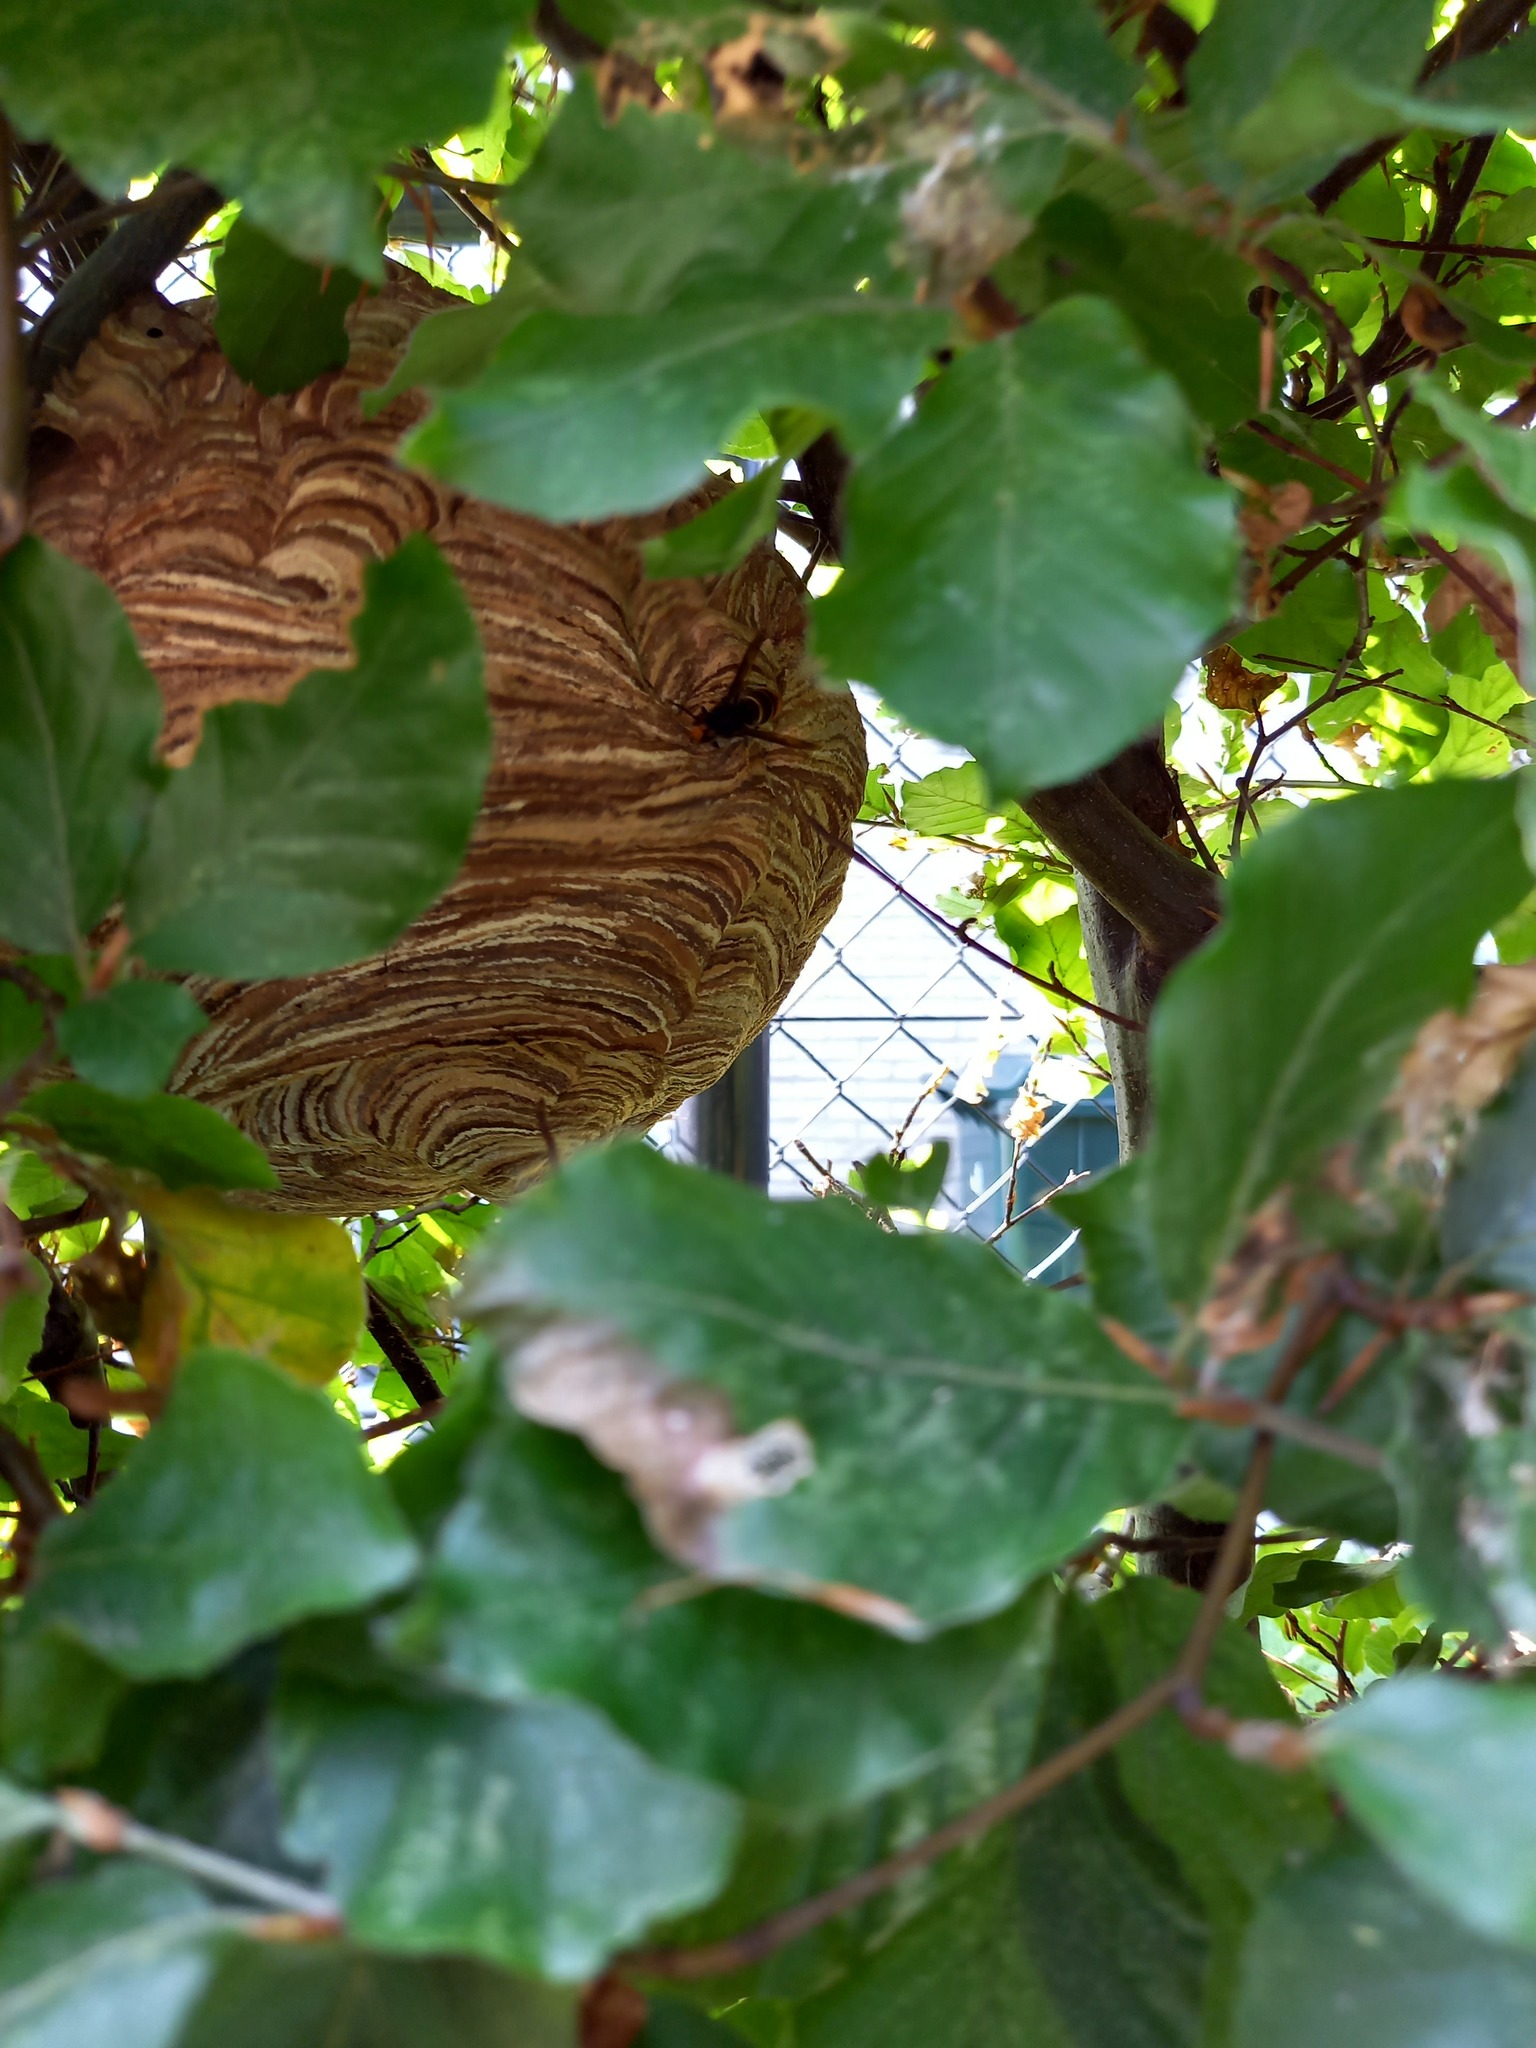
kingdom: Animalia
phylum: Arthropoda
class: Insecta
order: Hymenoptera
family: Vespidae
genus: Vespa
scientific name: Vespa velutina
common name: Asian hornet
